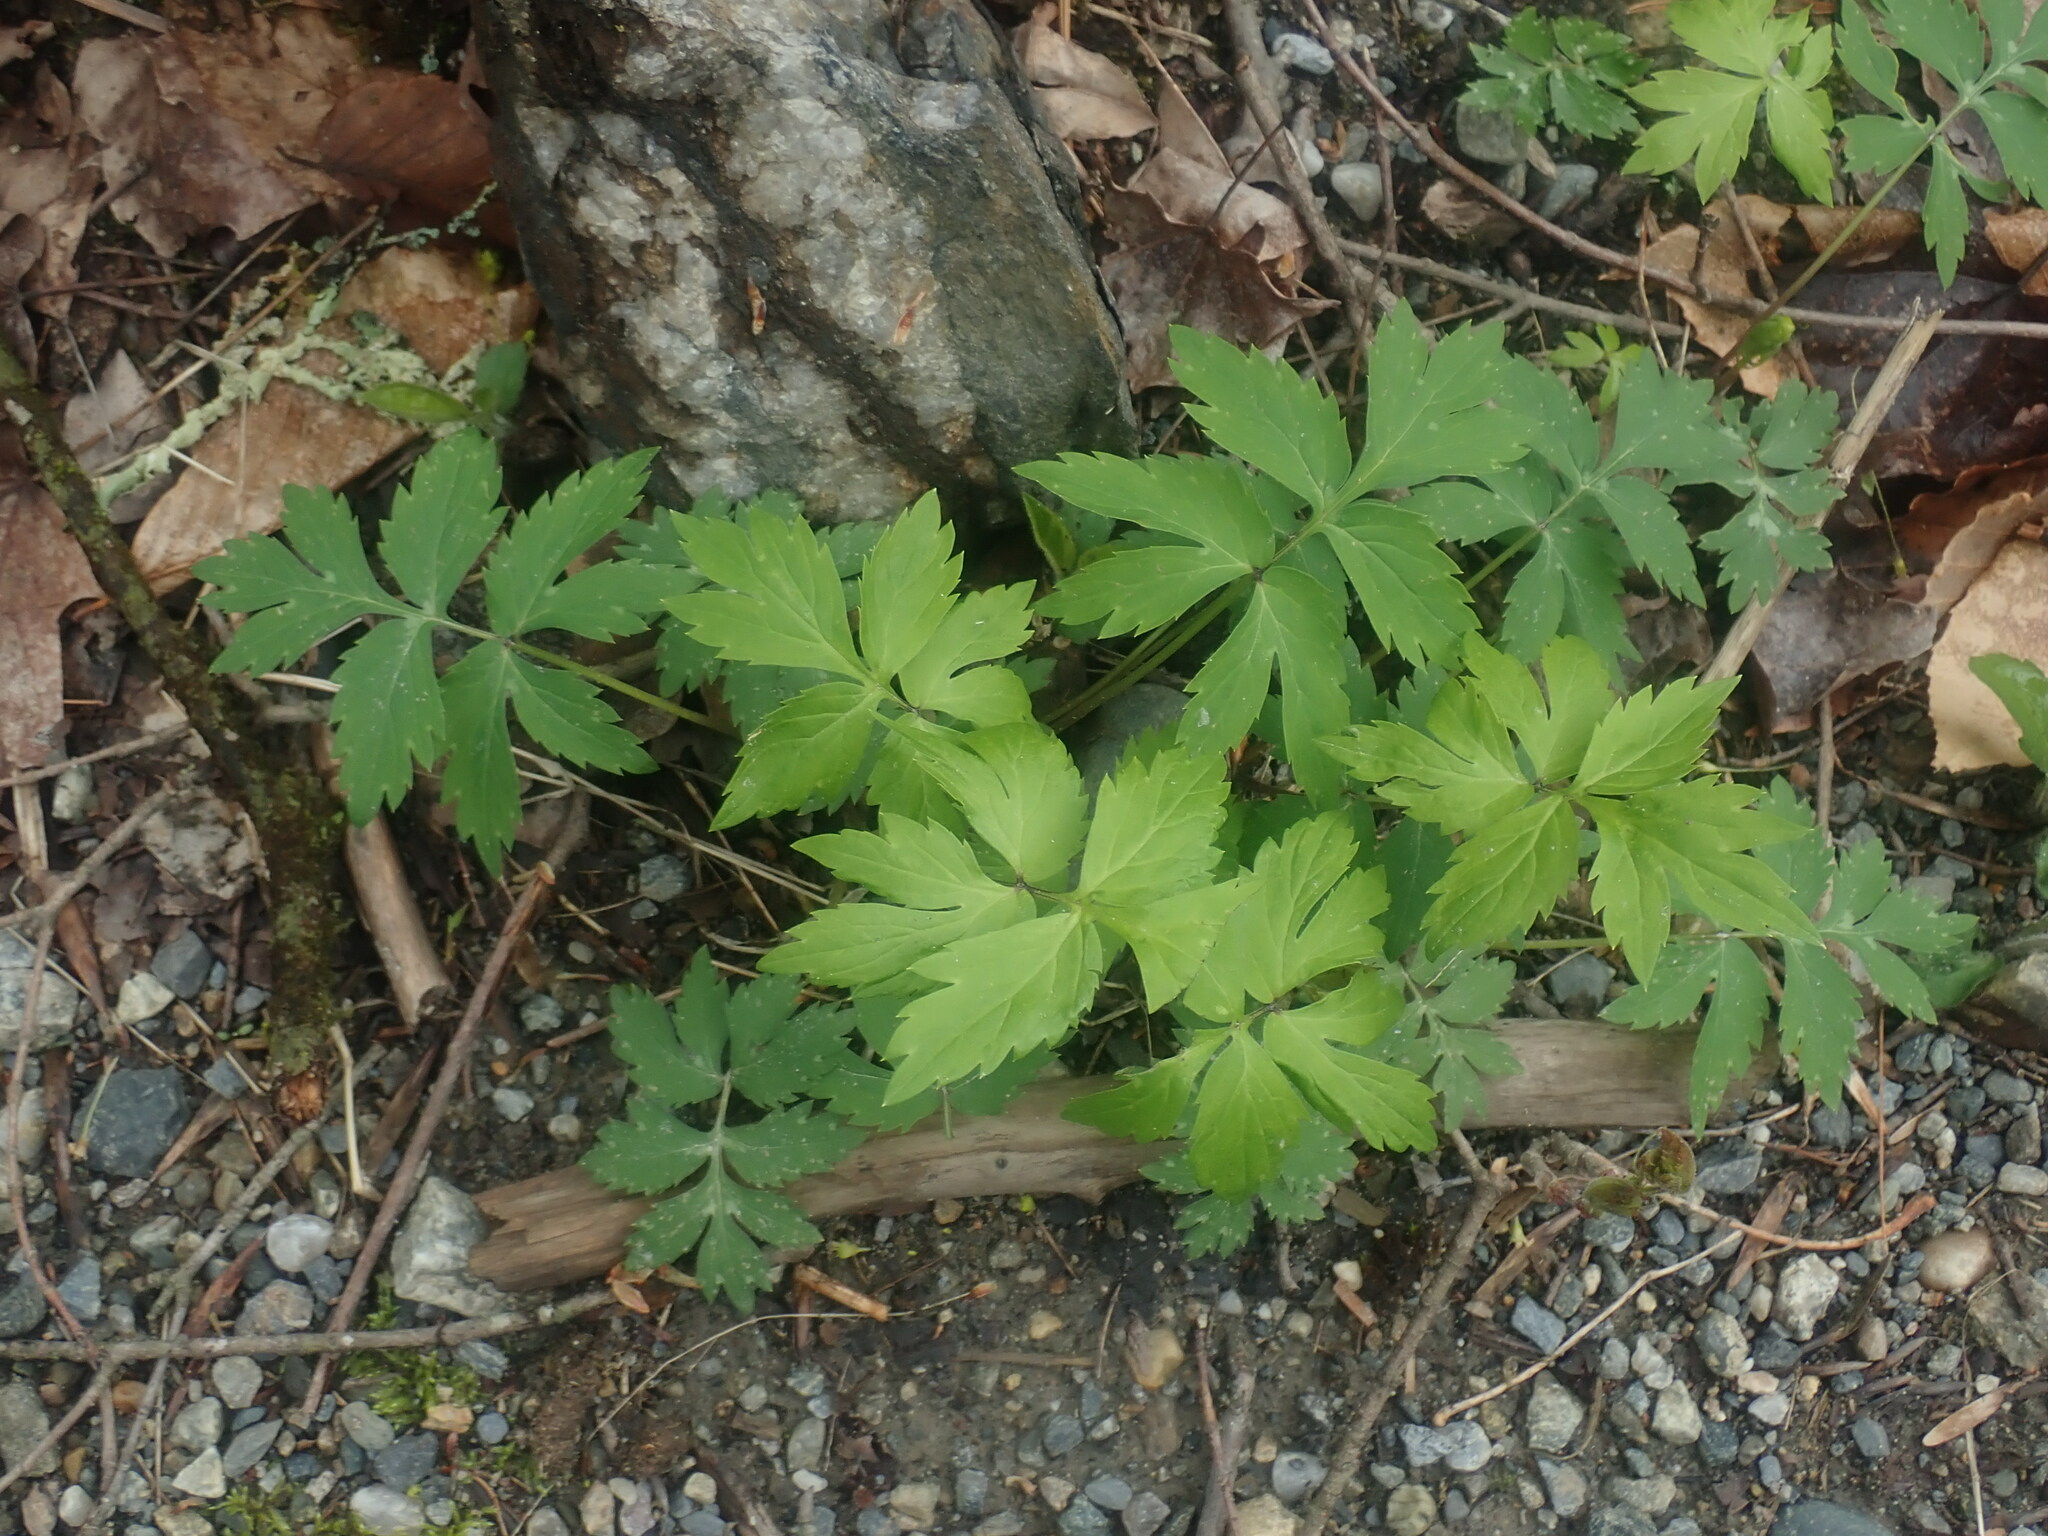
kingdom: Plantae
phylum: Tracheophyta
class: Magnoliopsida
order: Boraginales
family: Hydrophyllaceae
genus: Hydrophyllum
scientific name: Hydrophyllum virginianum
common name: Virginia waterleaf
